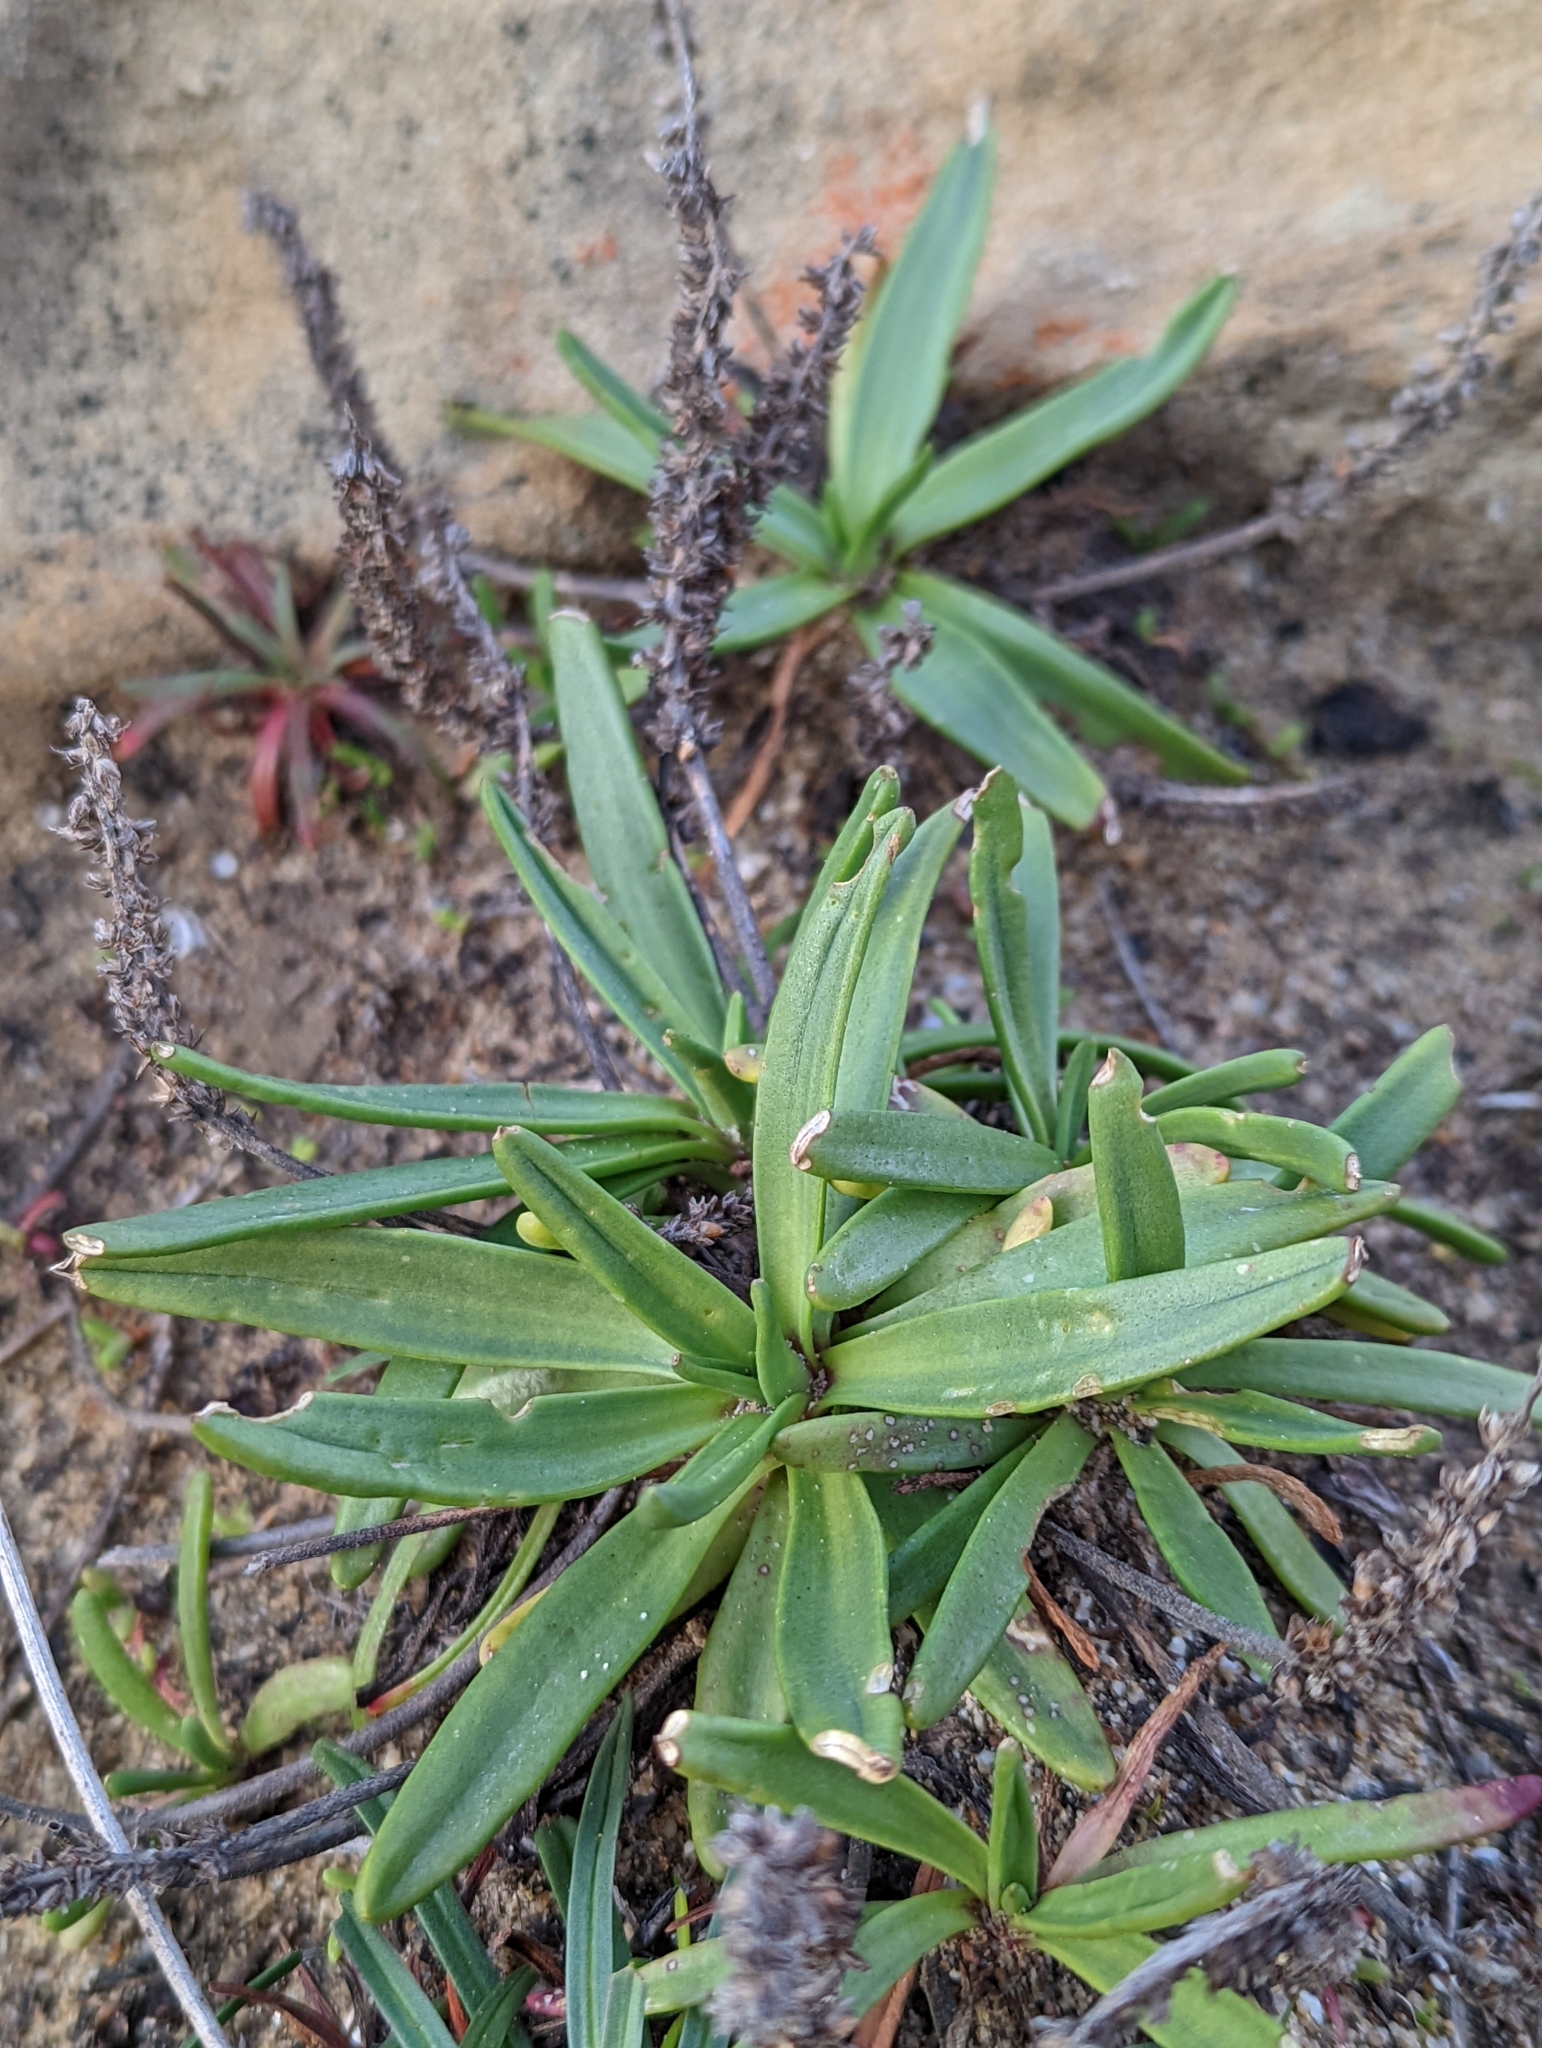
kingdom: Plantae
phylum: Tracheophyta
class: Magnoliopsida
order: Lamiales
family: Plantaginaceae
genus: Plantago
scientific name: Plantago maritima
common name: Sea plantain
